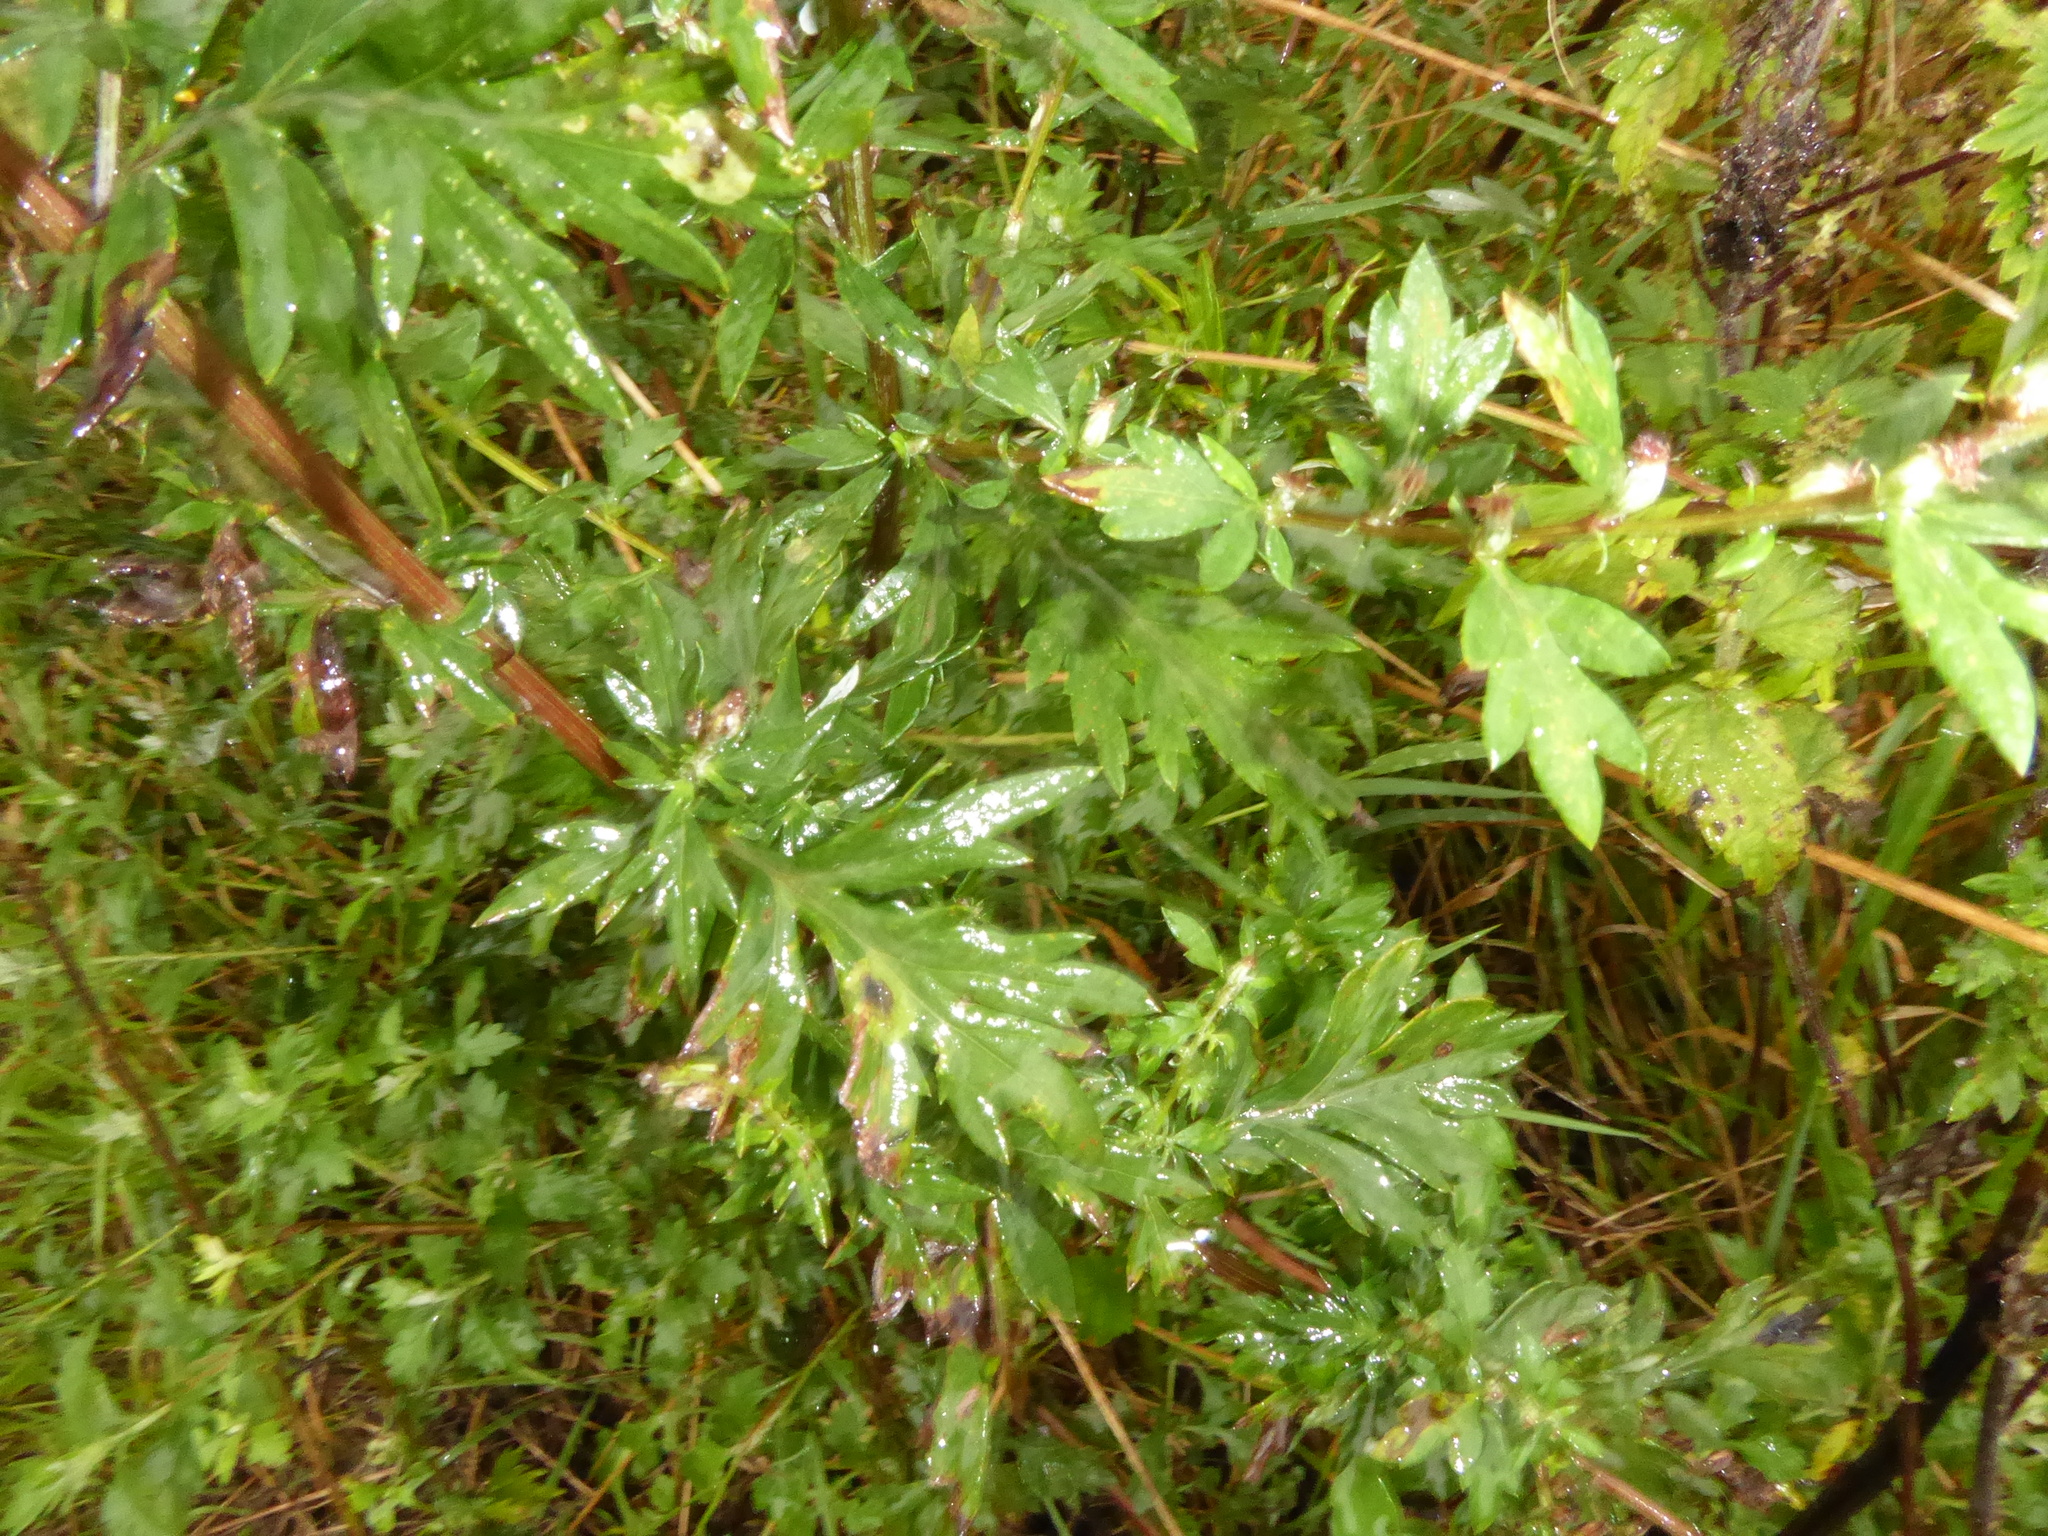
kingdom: Plantae
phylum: Tracheophyta
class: Magnoliopsida
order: Asterales
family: Asteraceae
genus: Artemisia
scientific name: Artemisia vulgaris
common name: Mugwort
